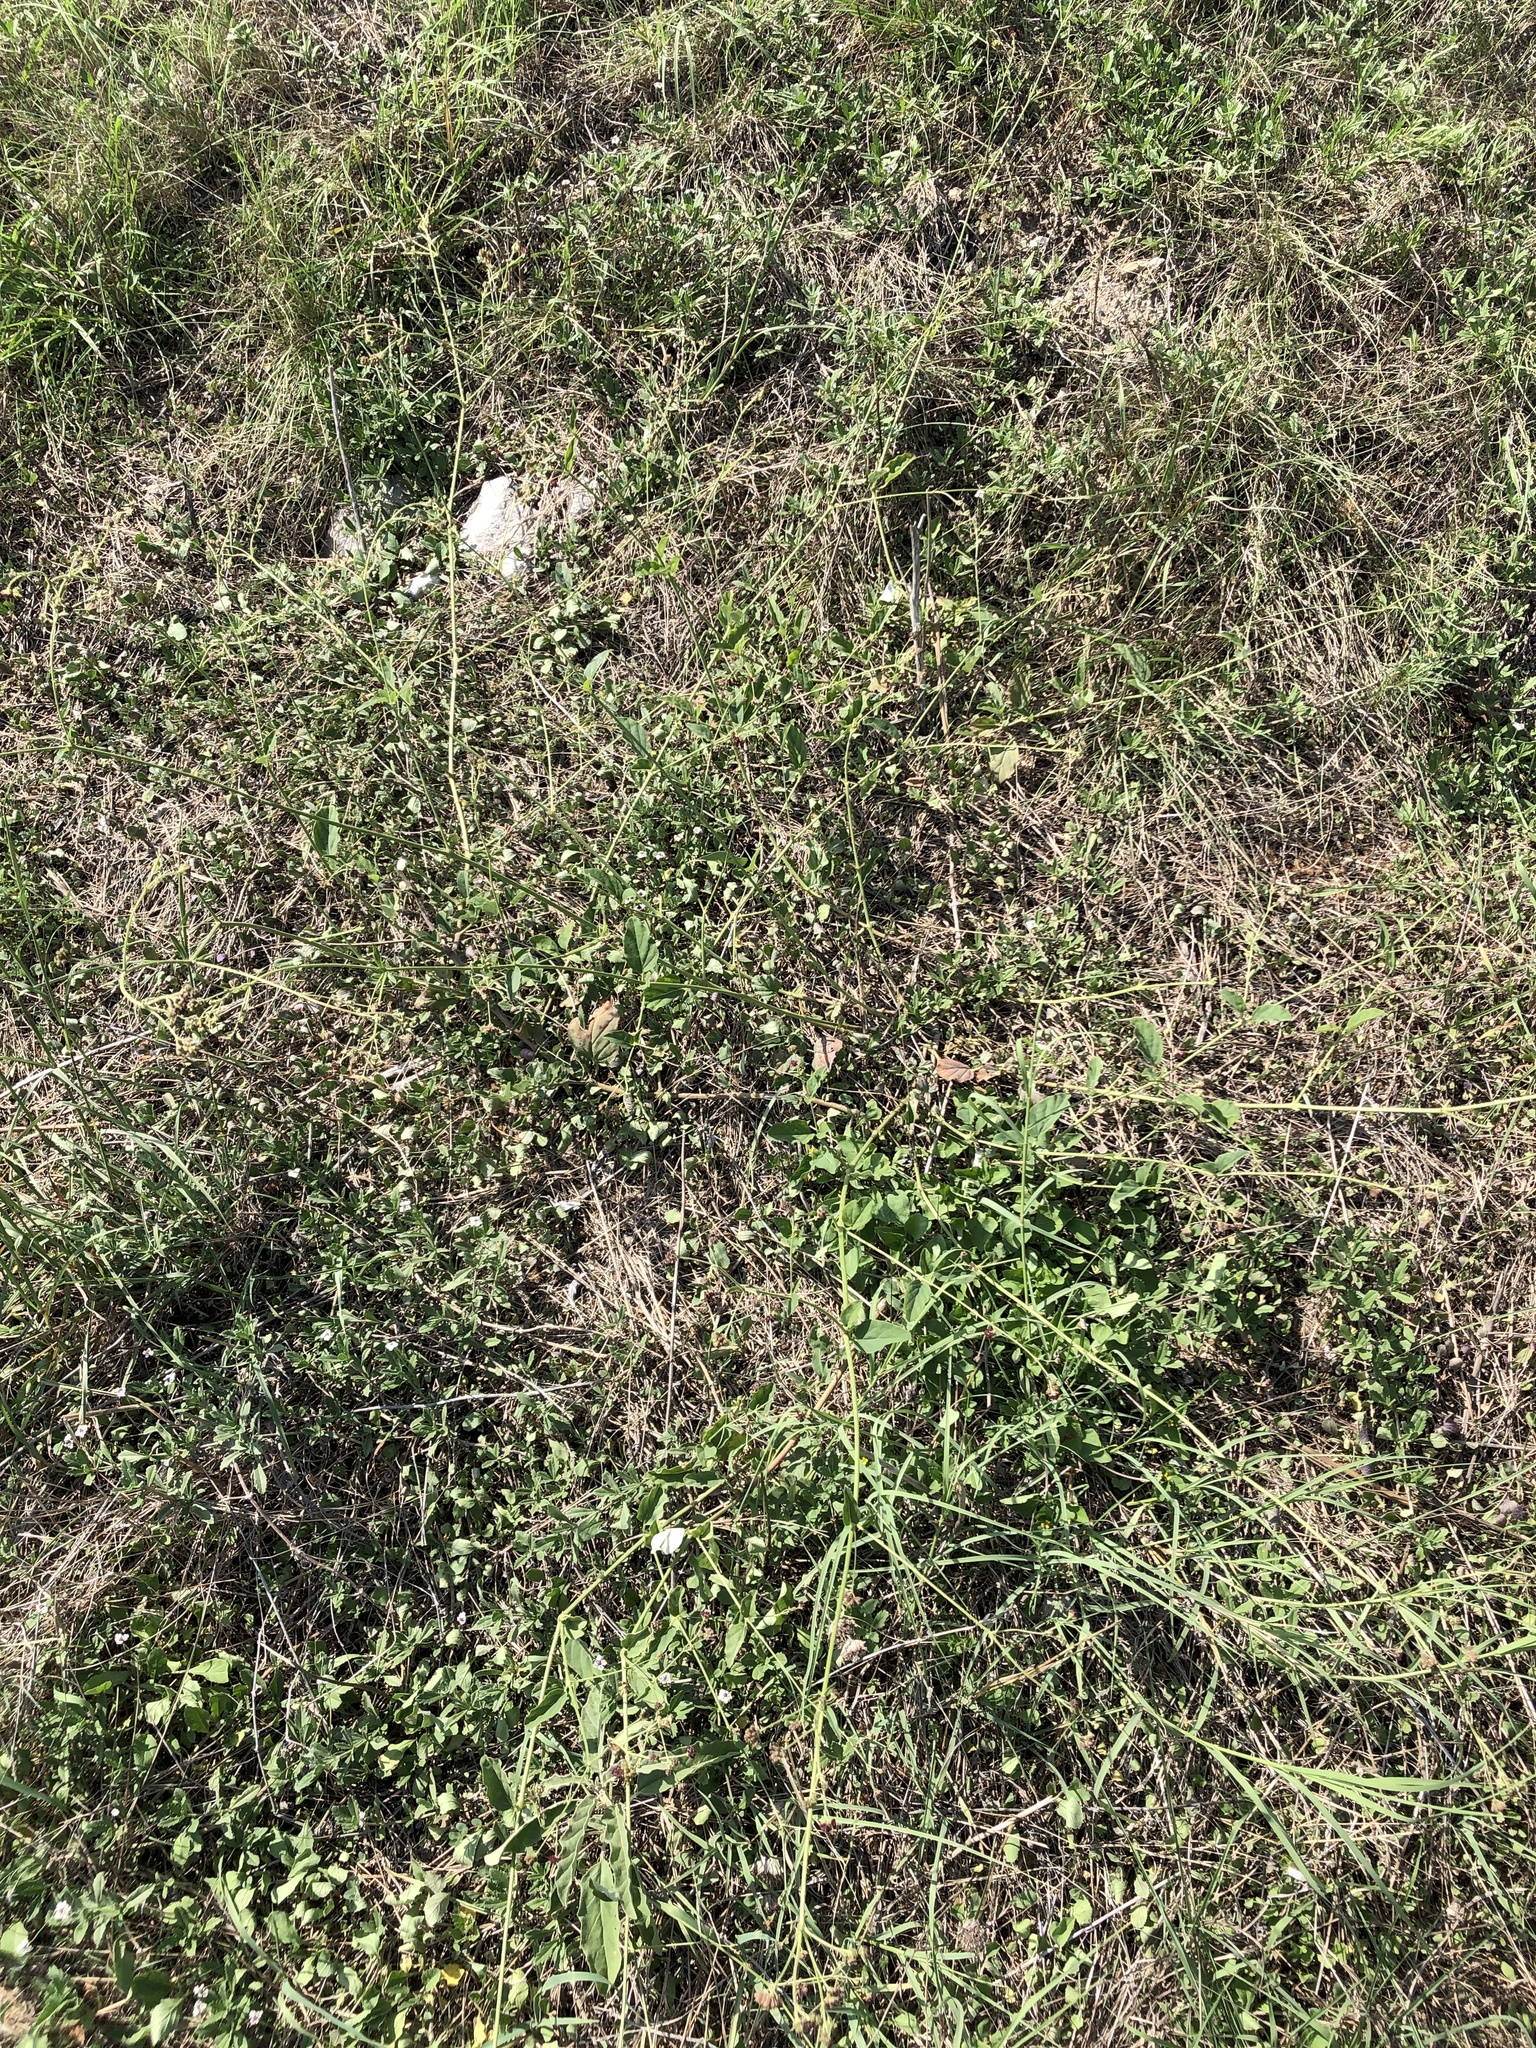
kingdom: Plantae
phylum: Tracheophyta
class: Magnoliopsida
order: Caryophyllales
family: Nyctaginaceae
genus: Boerhavia
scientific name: Boerhavia coccinea
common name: Scarlet spiderling
